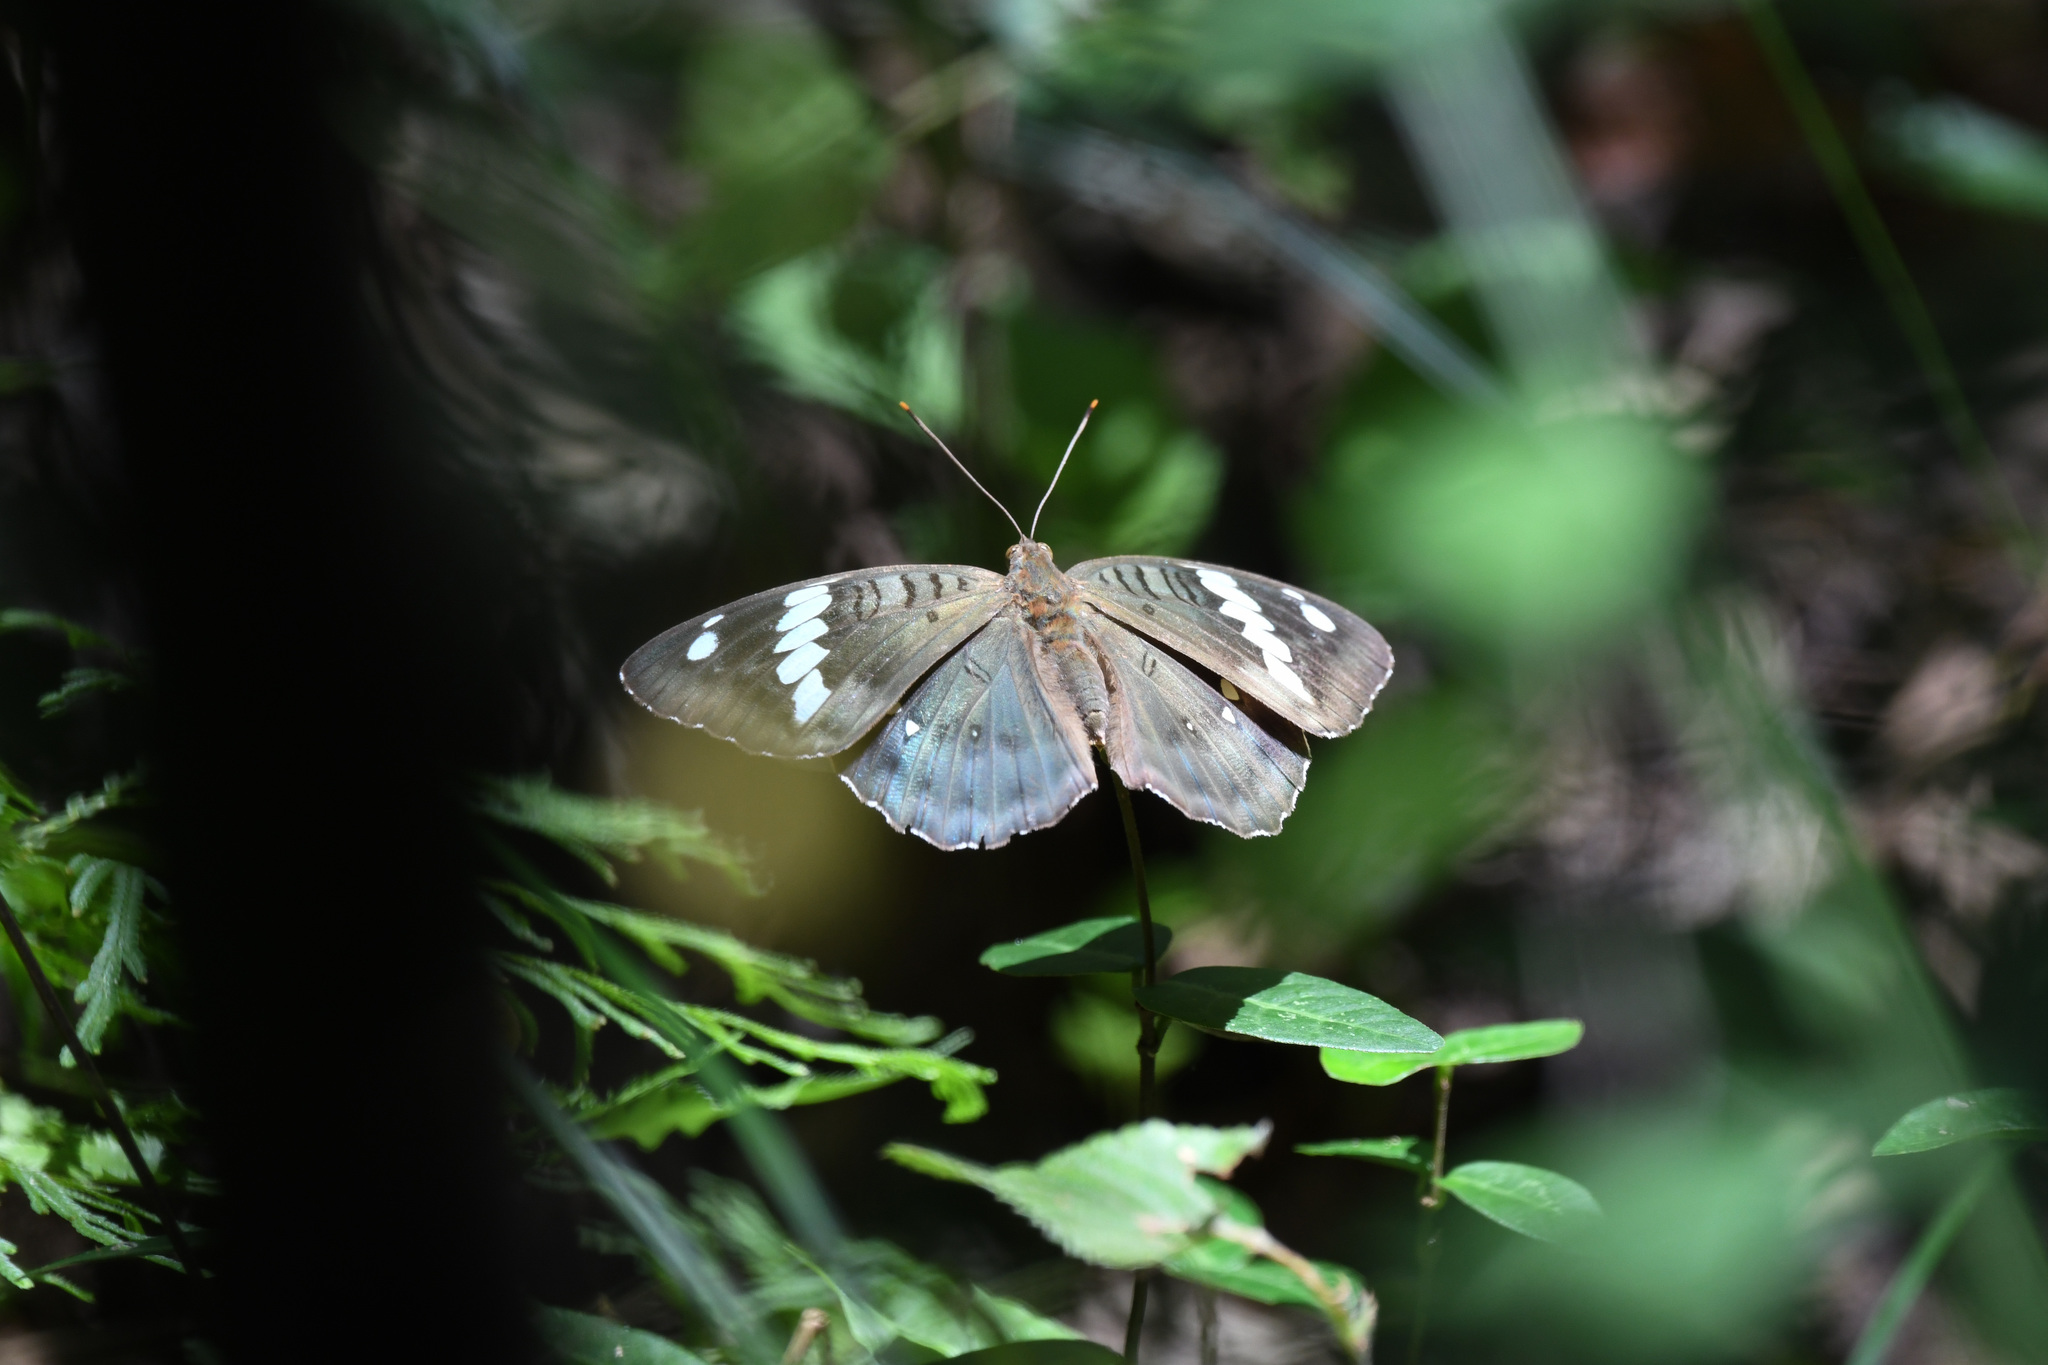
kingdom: Animalia
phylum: Arthropoda
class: Insecta
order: Lepidoptera
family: Nymphalidae
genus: Euthalia
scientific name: Euthalia kosempona
